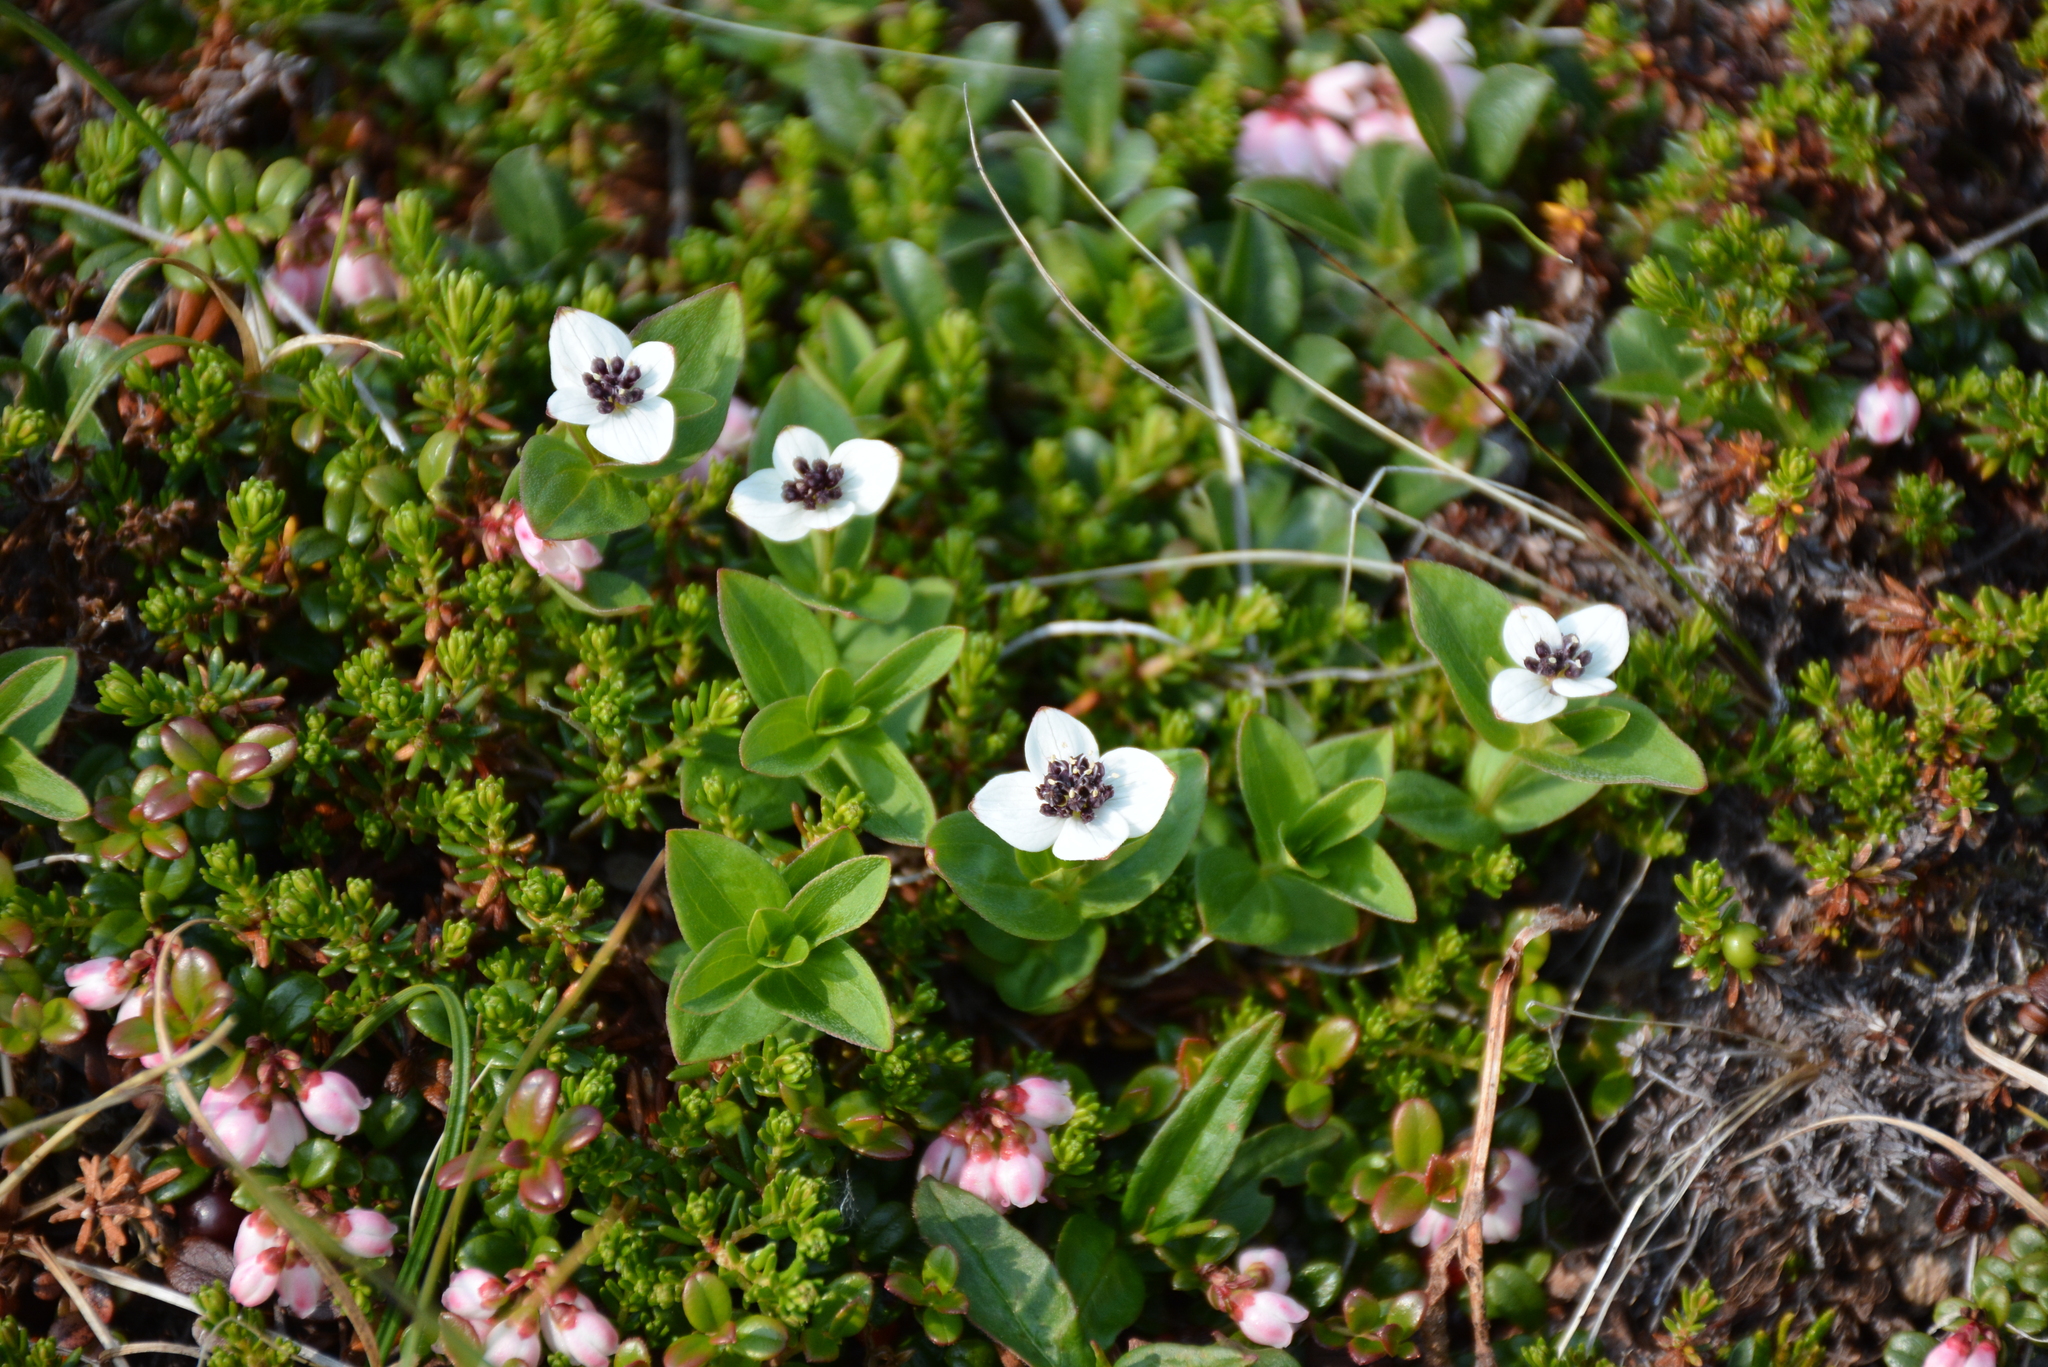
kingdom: Plantae
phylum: Tracheophyta
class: Magnoliopsida
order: Cornales
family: Cornaceae
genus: Cornus
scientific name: Cornus suecica
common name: Dwarf cornel
